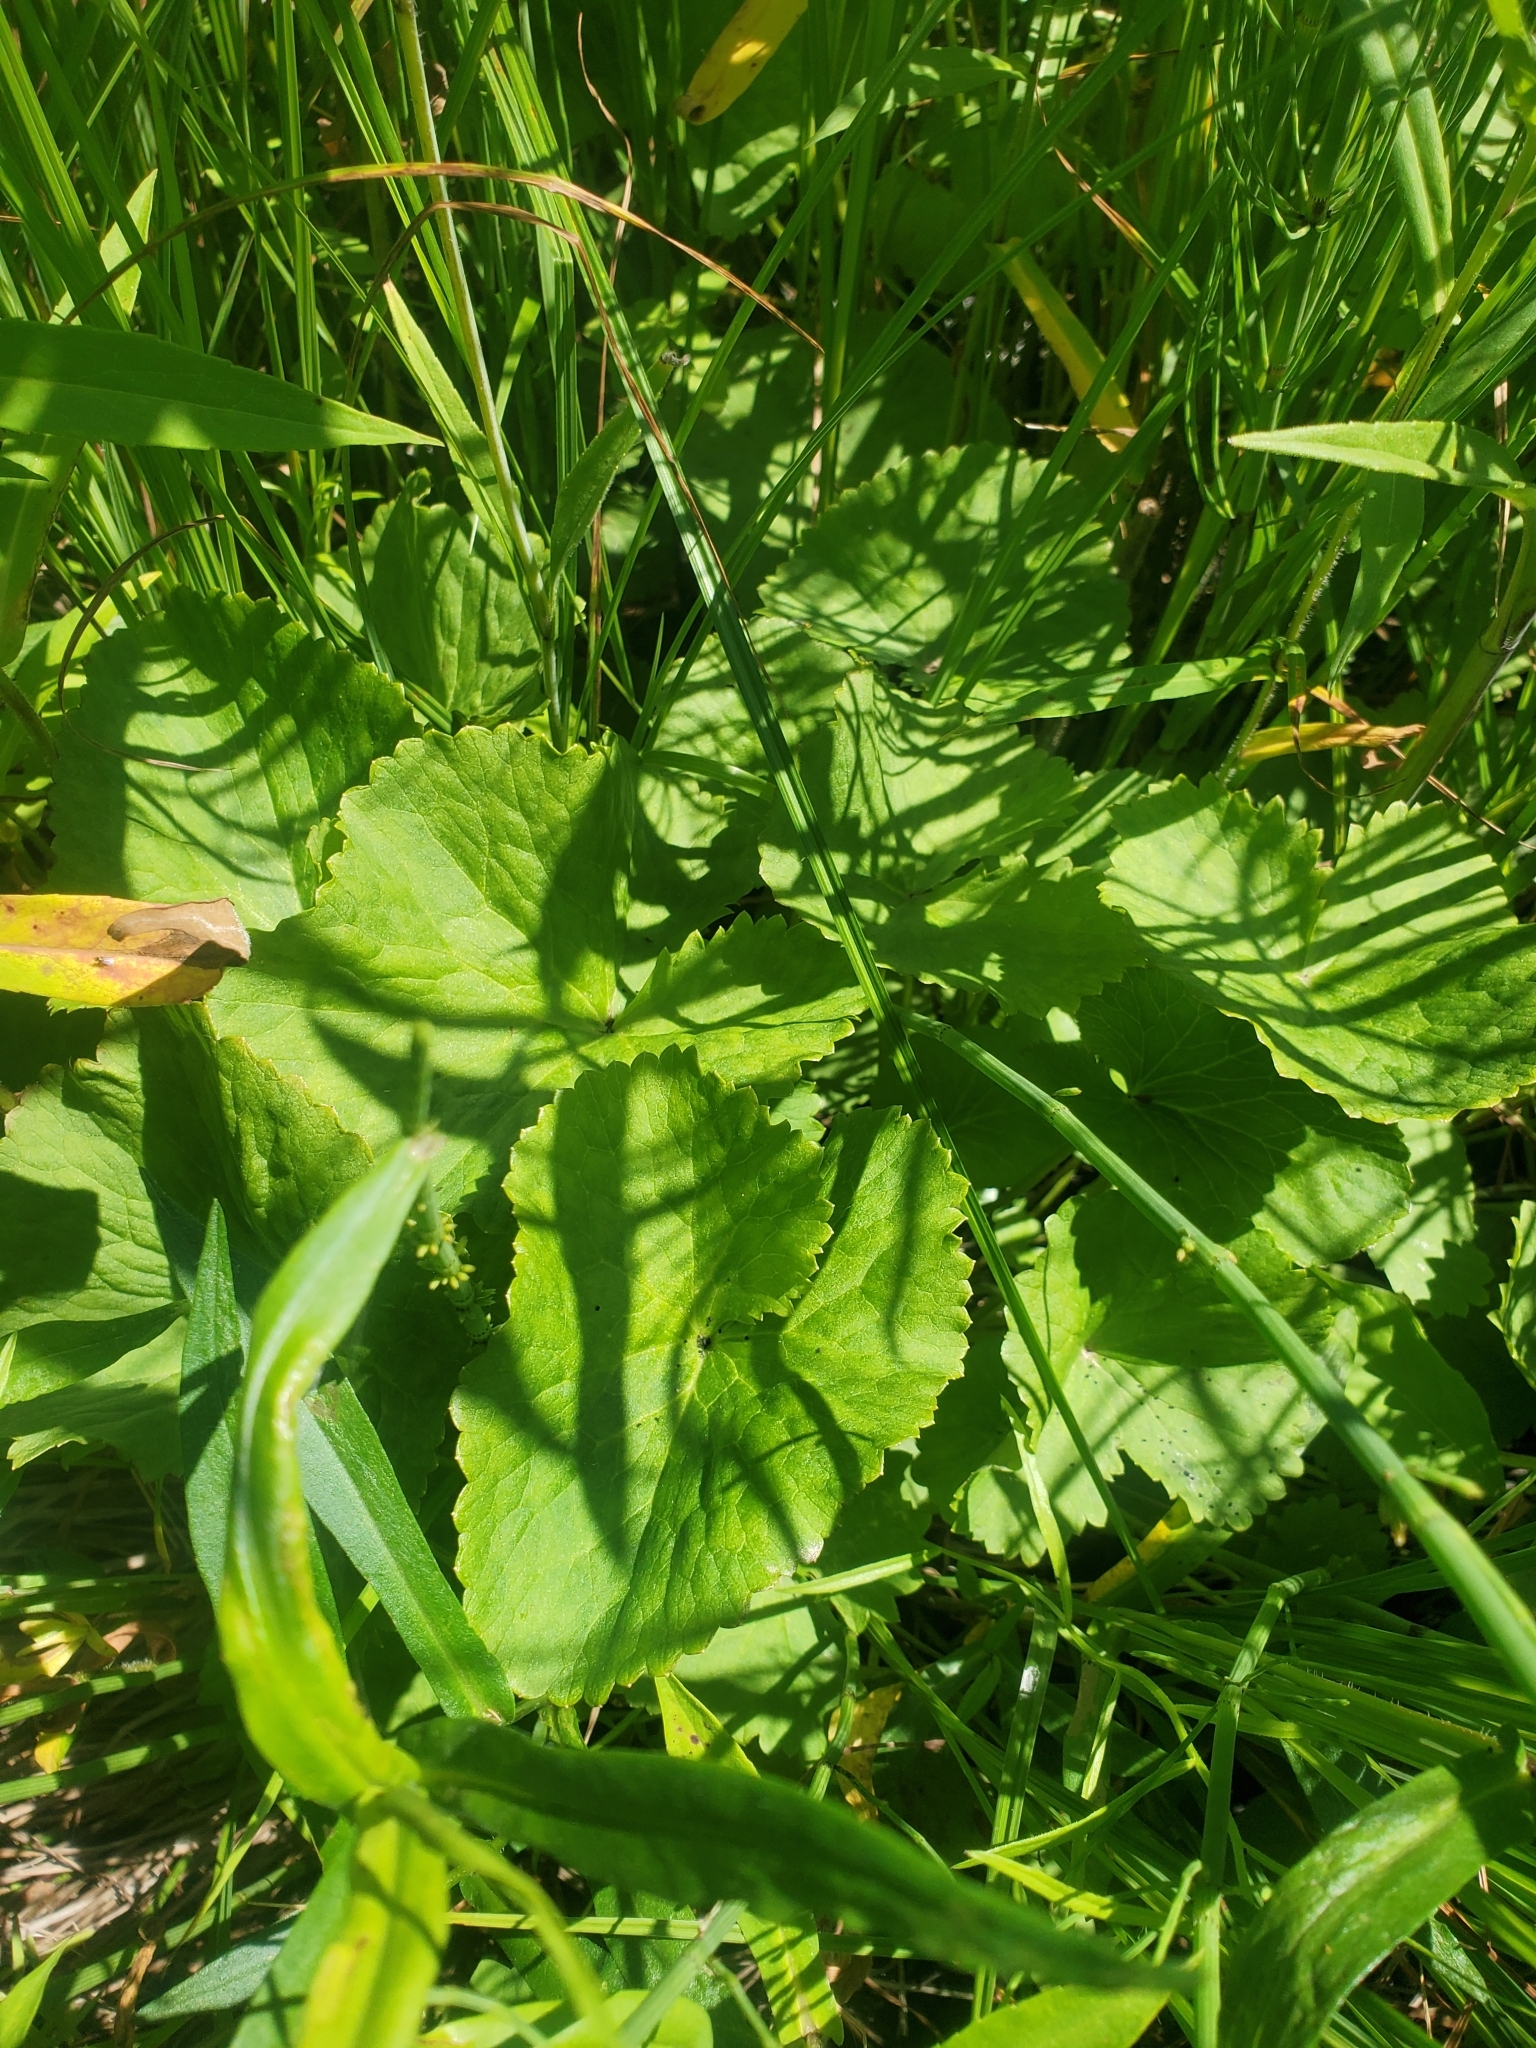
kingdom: Plantae
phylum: Tracheophyta
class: Magnoliopsida
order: Ranunculales
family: Ranunculaceae
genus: Caltha
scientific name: Caltha palustris
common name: Marsh marigold
